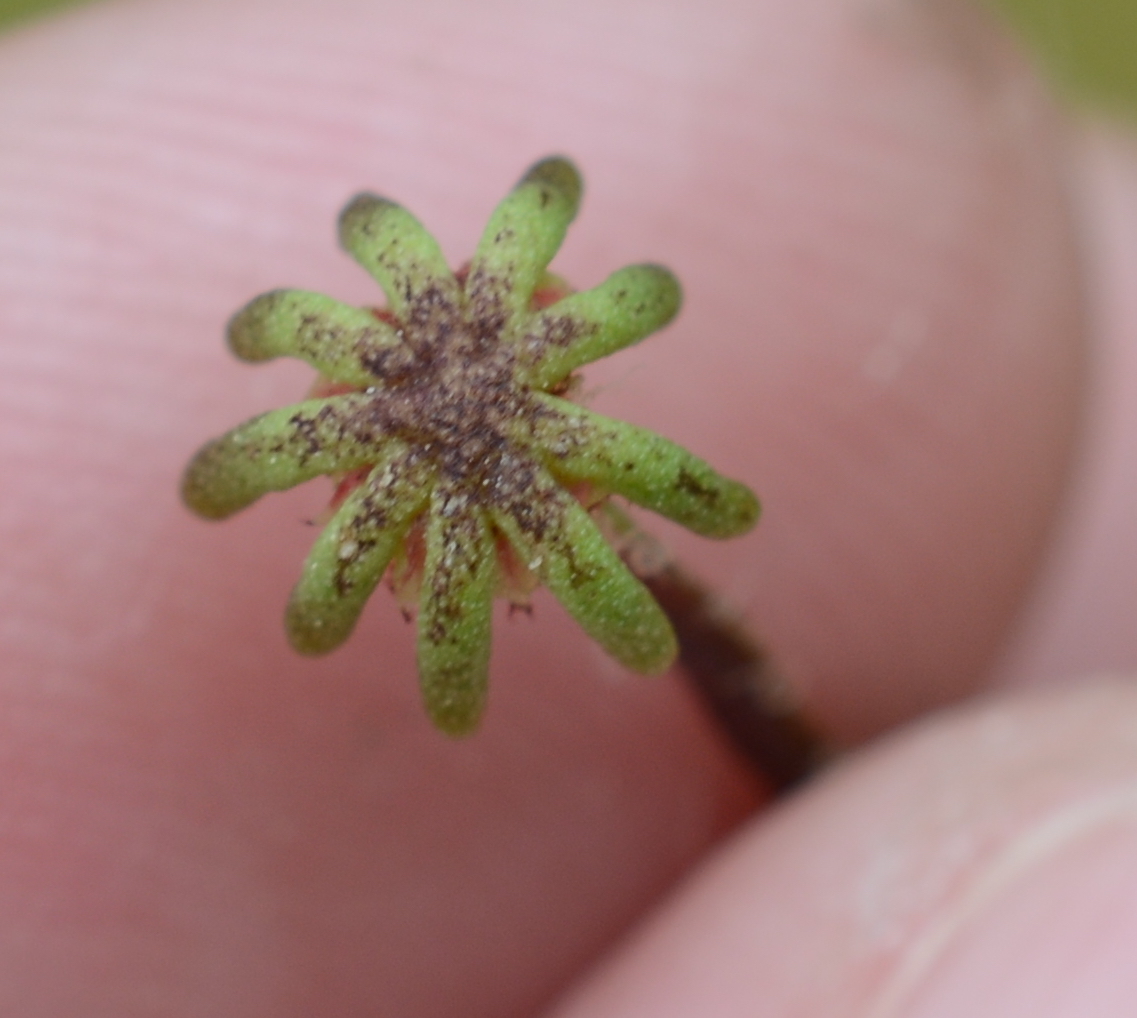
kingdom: Plantae
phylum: Marchantiophyta
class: Marchantiopsida
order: Marchantiales
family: Marchantiaceae
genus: Marchantia
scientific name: Marchantia polymorpha
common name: Common liverwort
